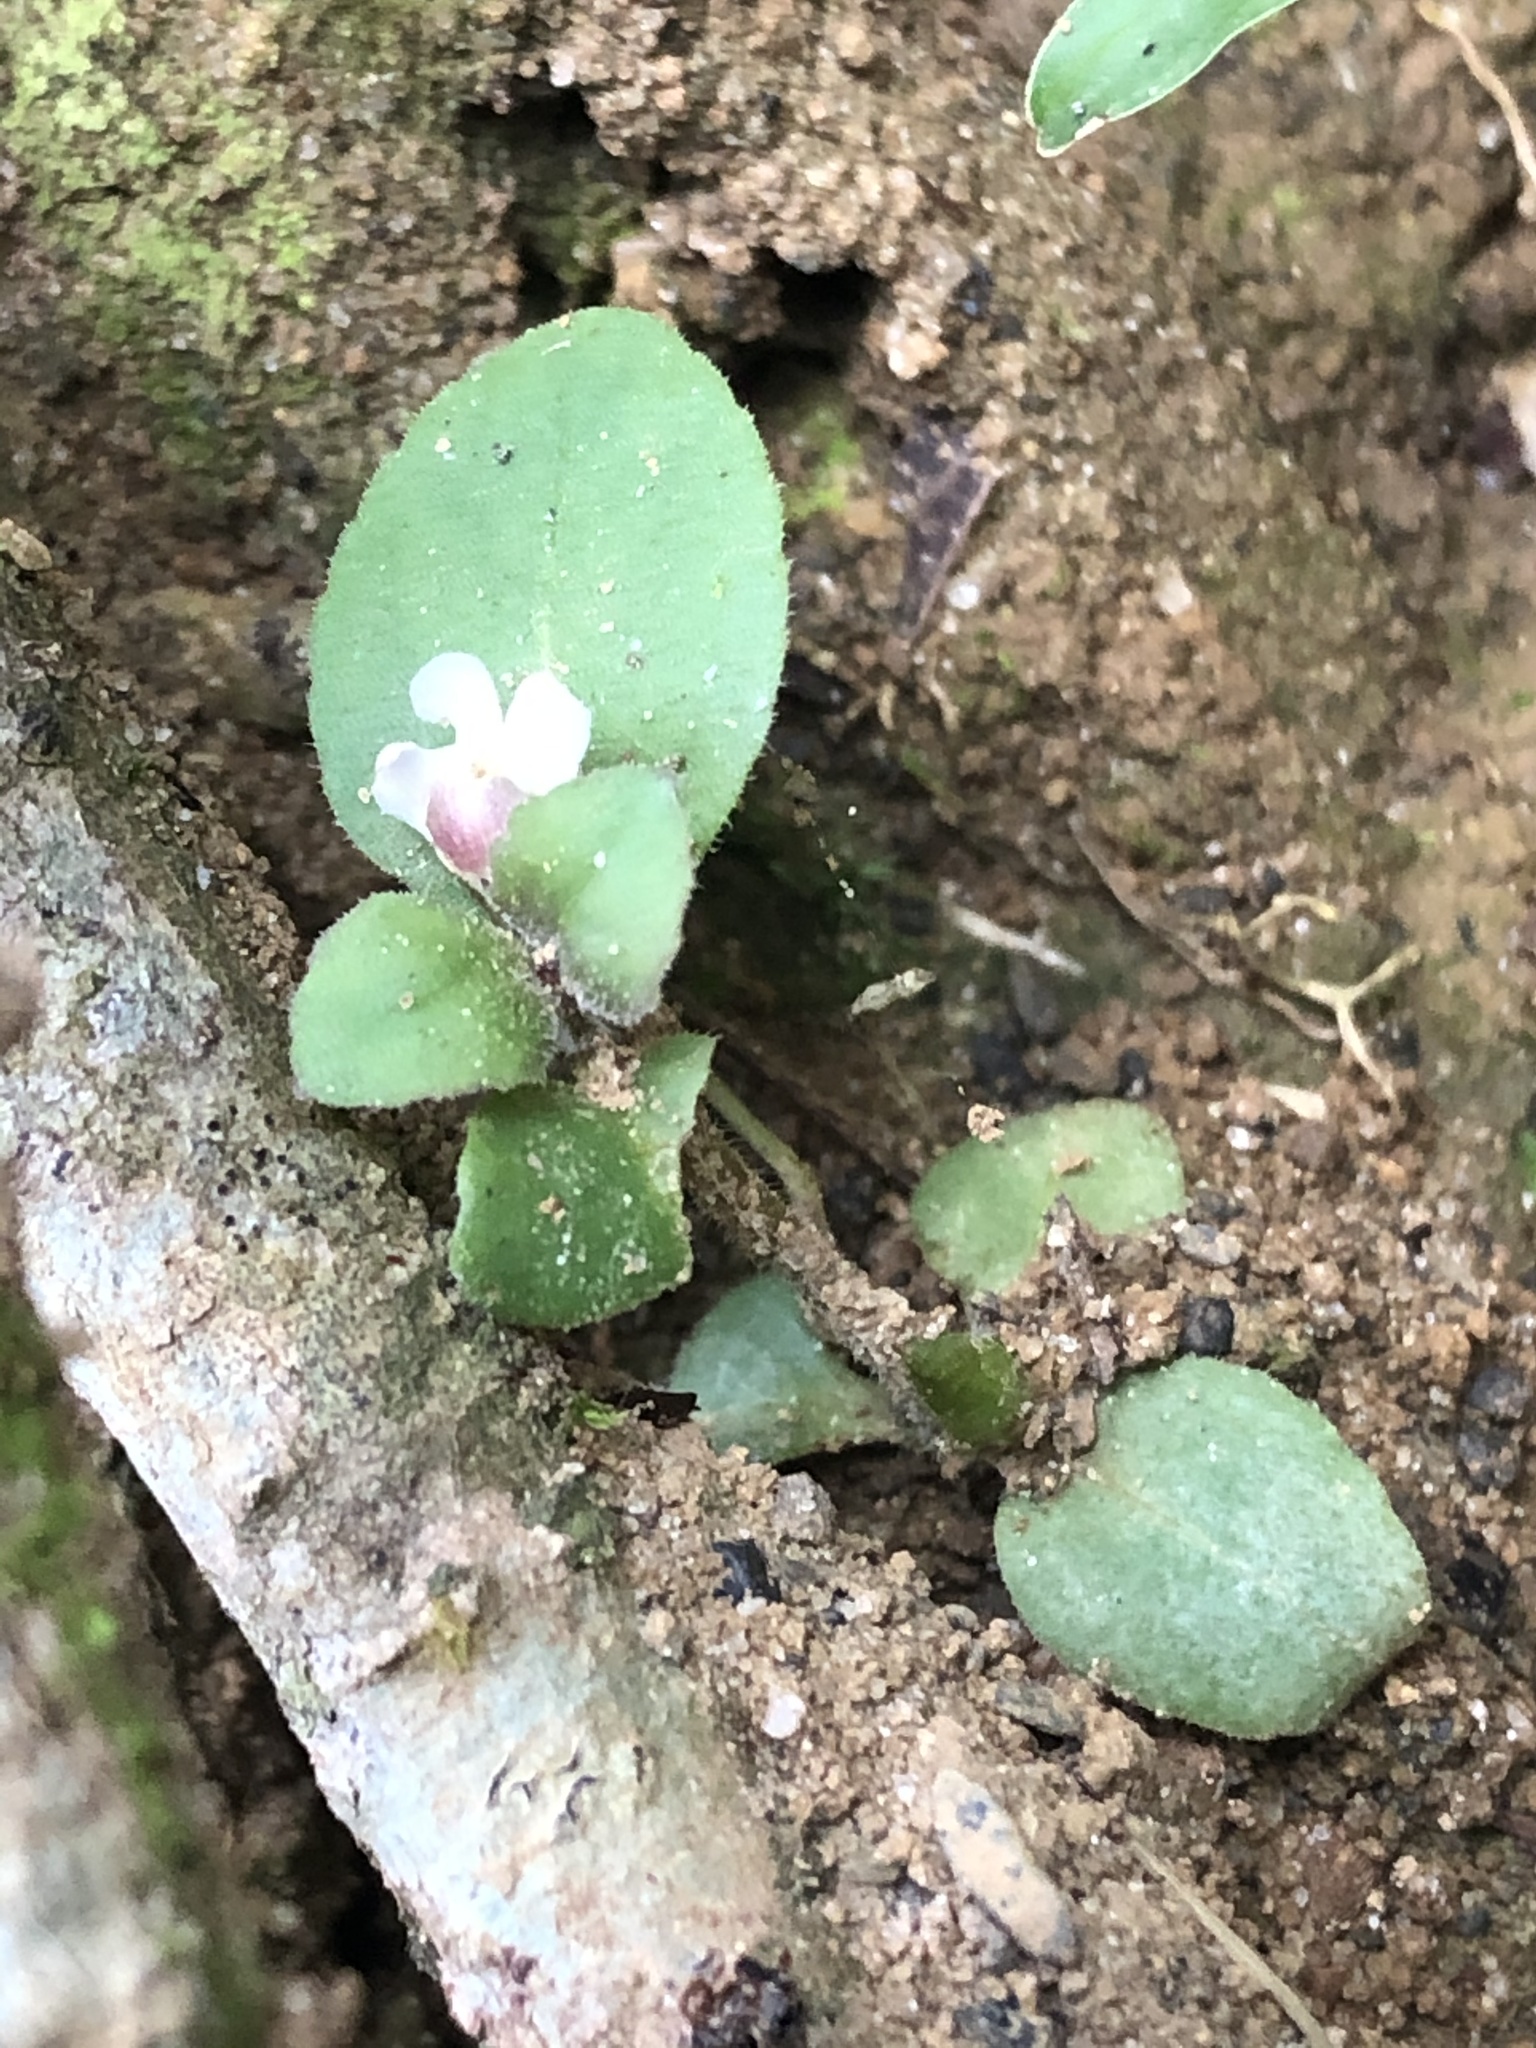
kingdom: Plantae
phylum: Tracheophyta
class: Magnoliopsida
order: Lamiales
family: Linderniaceae
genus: Vandellia
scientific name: Vandellia diffusa
